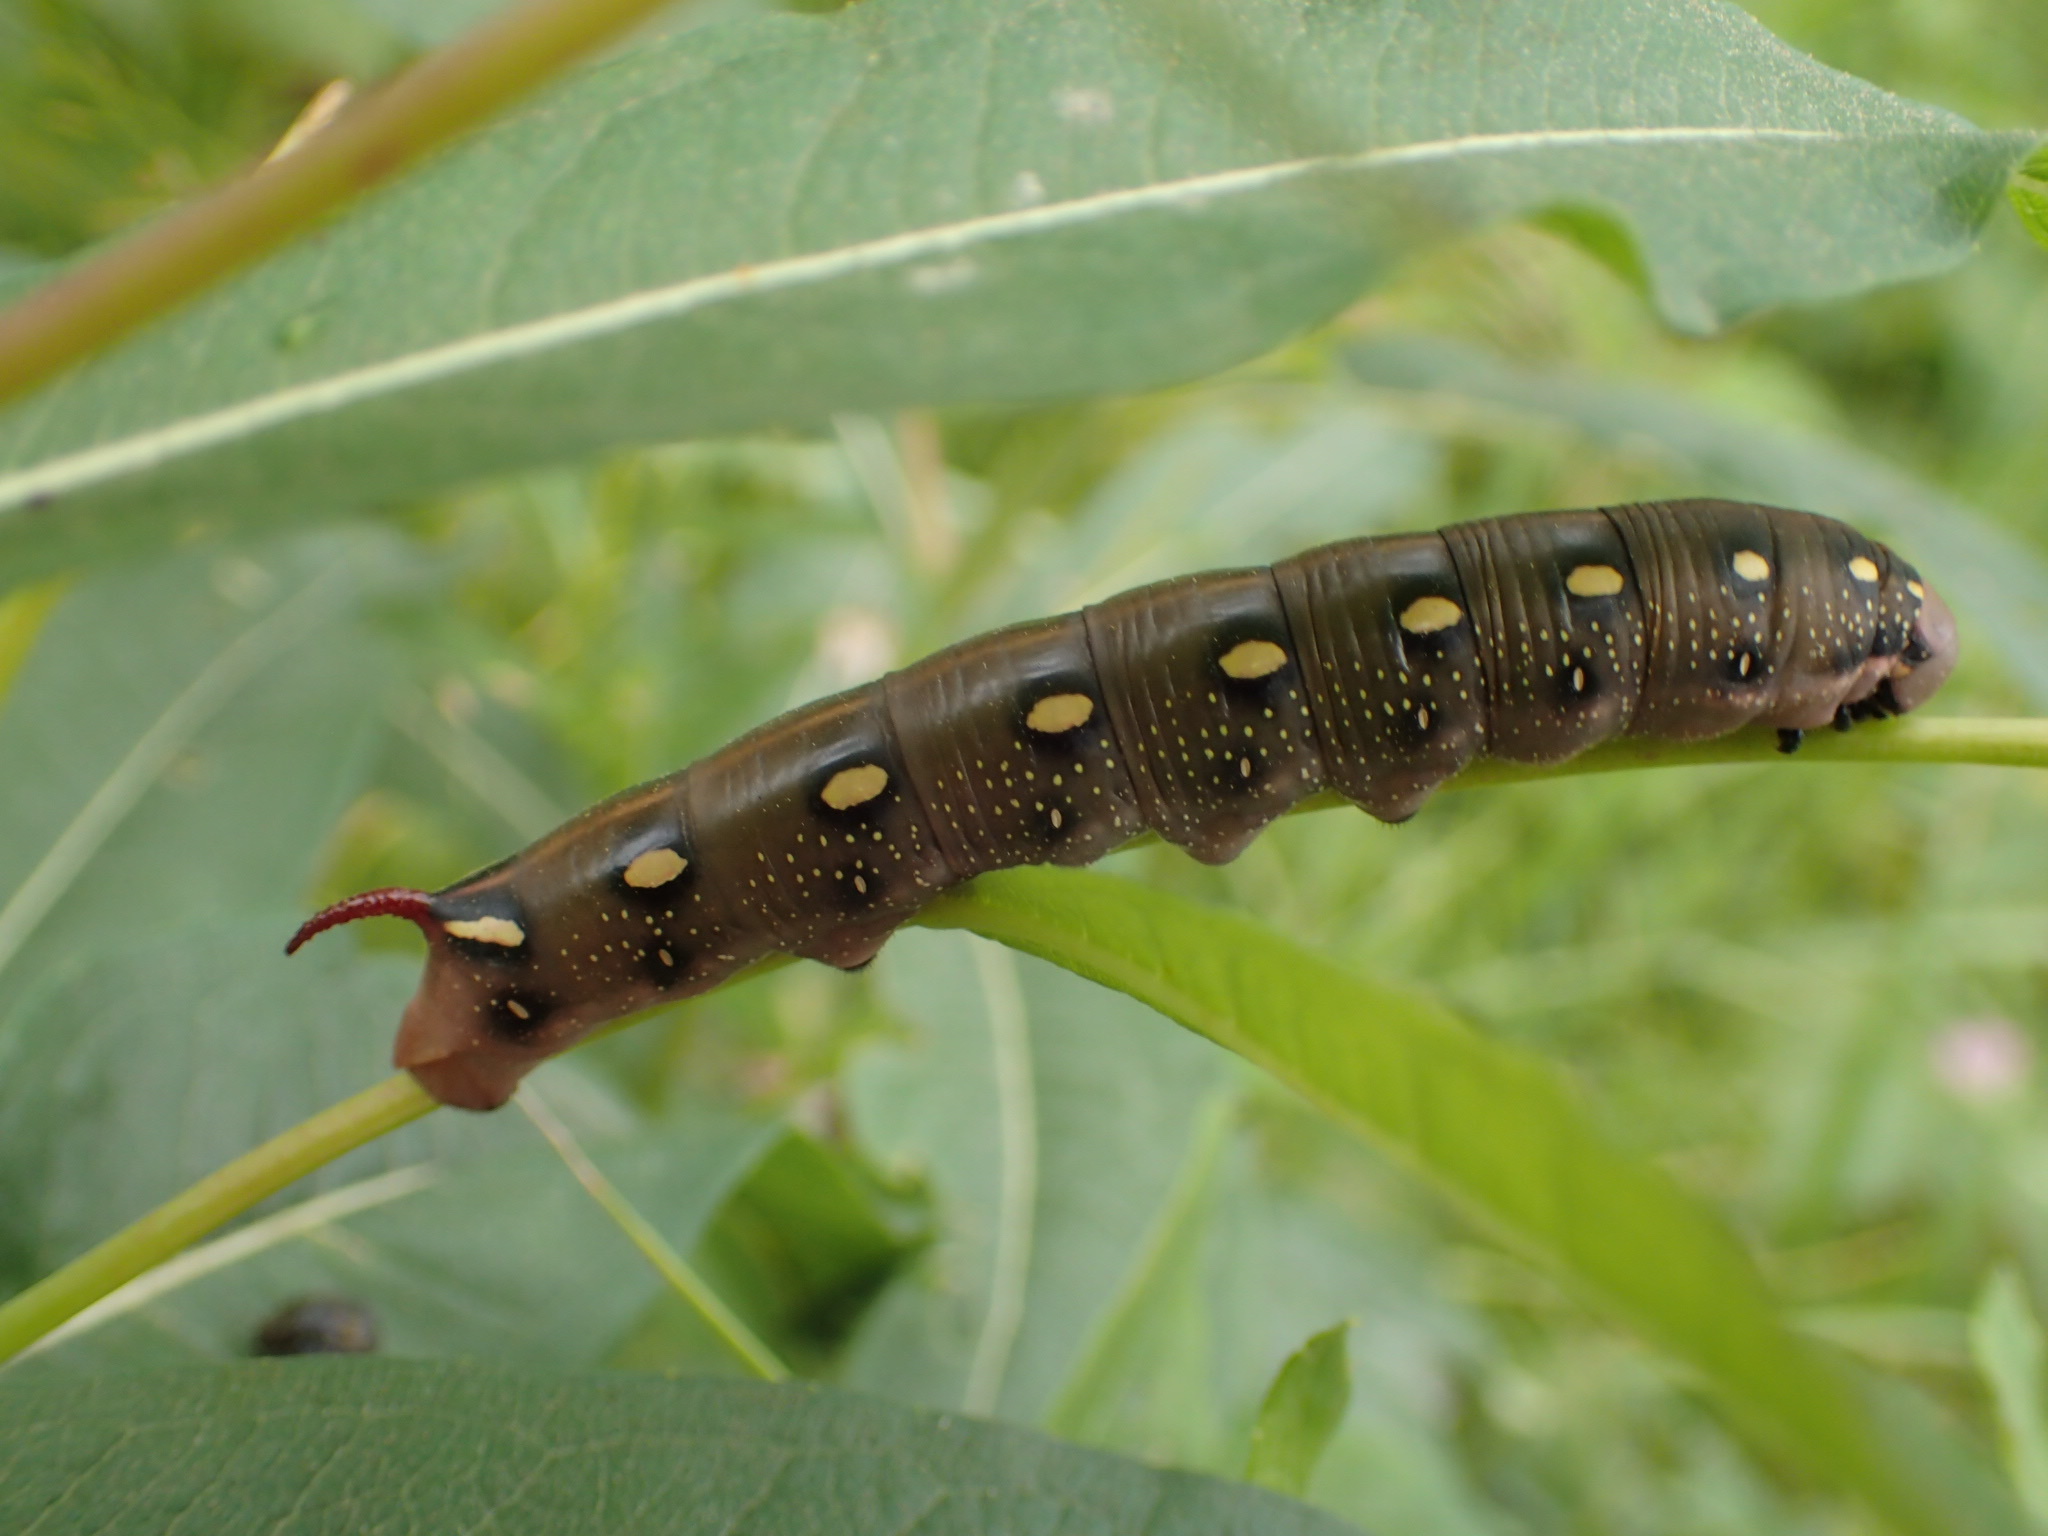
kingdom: Animalia
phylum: Arthropoda
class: Insecta
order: Lepidoptera
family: Sphingidae
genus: Hyles
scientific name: Hyles gallii
